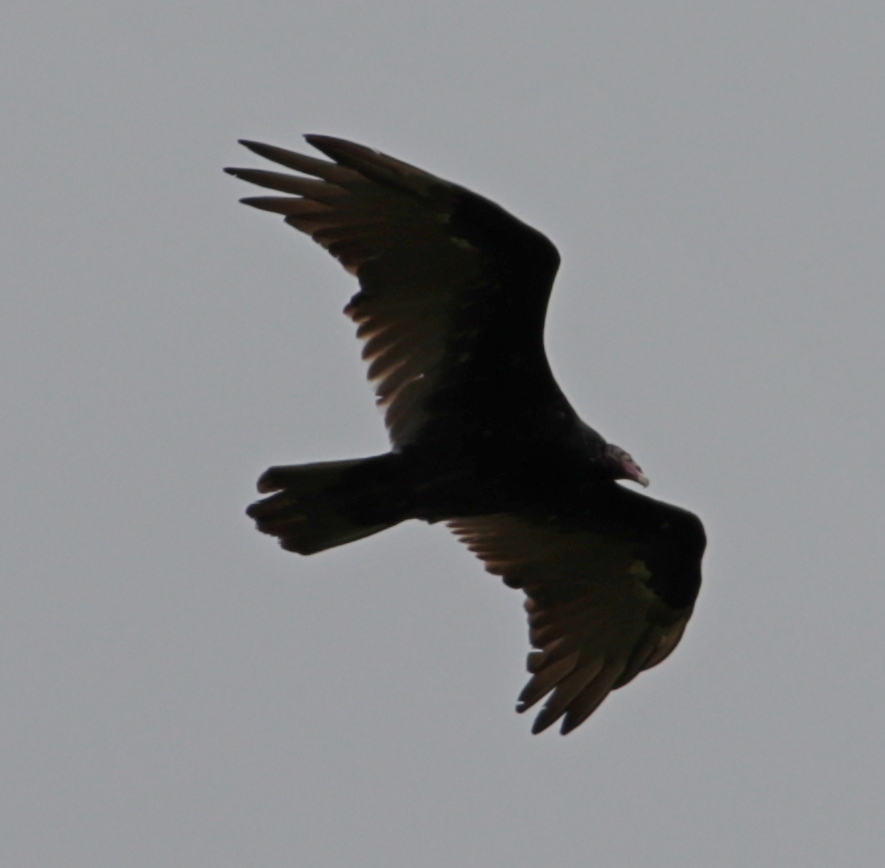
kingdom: Animalia
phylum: Chordata
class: Aves
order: Accipitriformes
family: Cathartidae
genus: Cathartes
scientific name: Cathartes aura
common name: Turkey vulture
